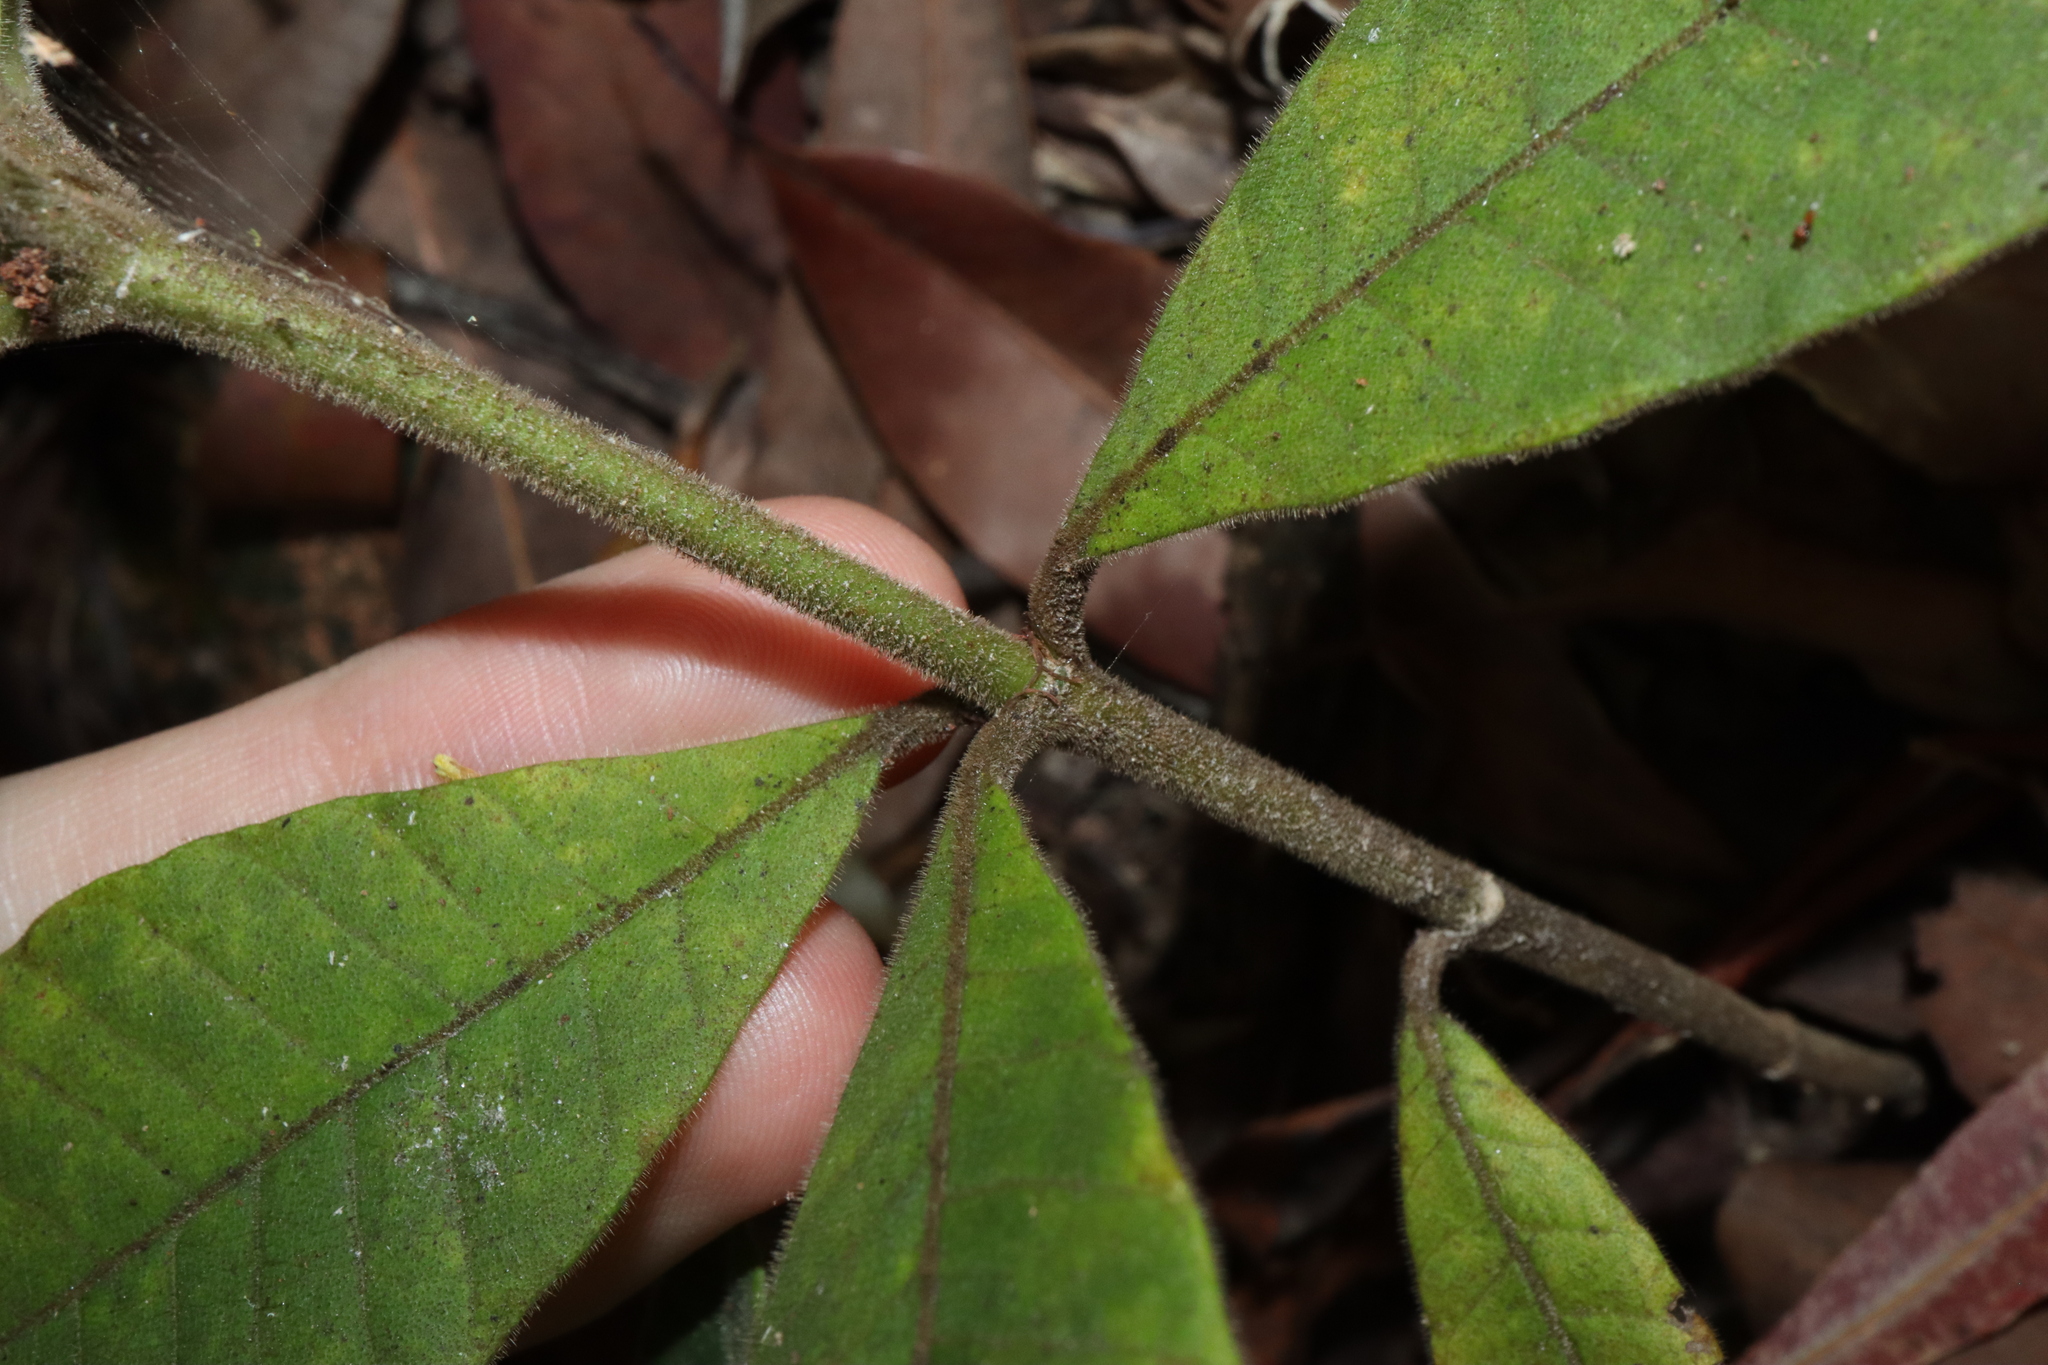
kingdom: Plantae
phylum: Tracheophyta
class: Magnoliopsida
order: Gentianales
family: Apocynaceae
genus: Alstonia
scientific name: Alstonia muelleriana
